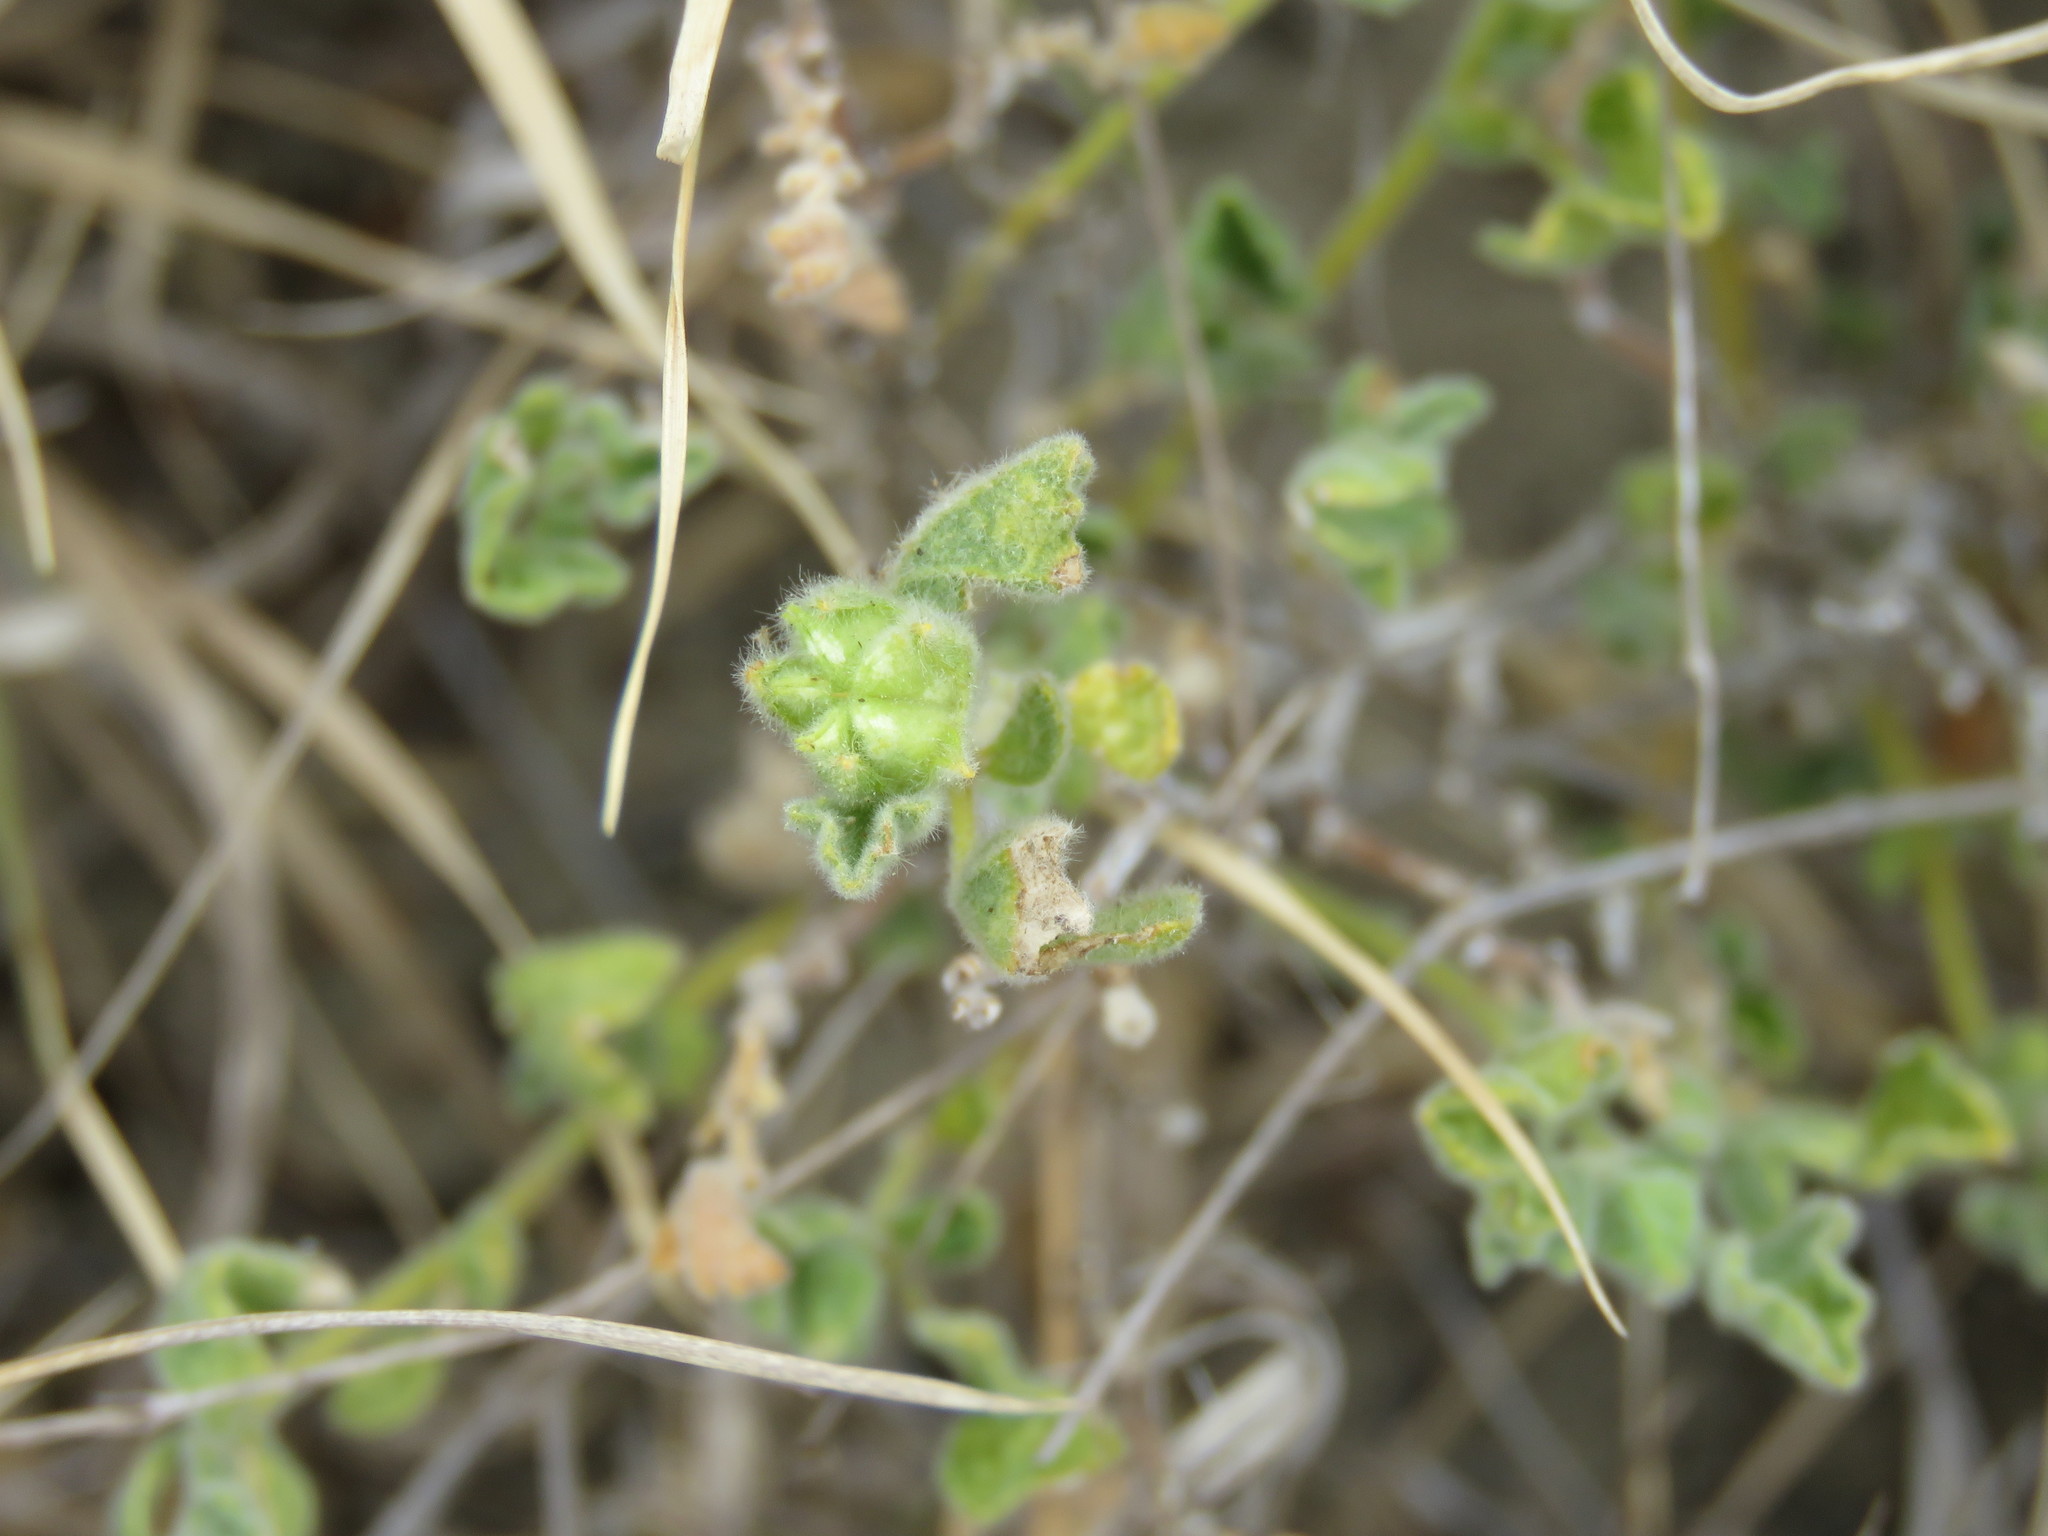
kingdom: Plantae
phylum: Tracheophyta
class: Magnoliopsida
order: Malvales
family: Malvaceae
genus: Billieturnera
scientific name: Billieturnera helleri
